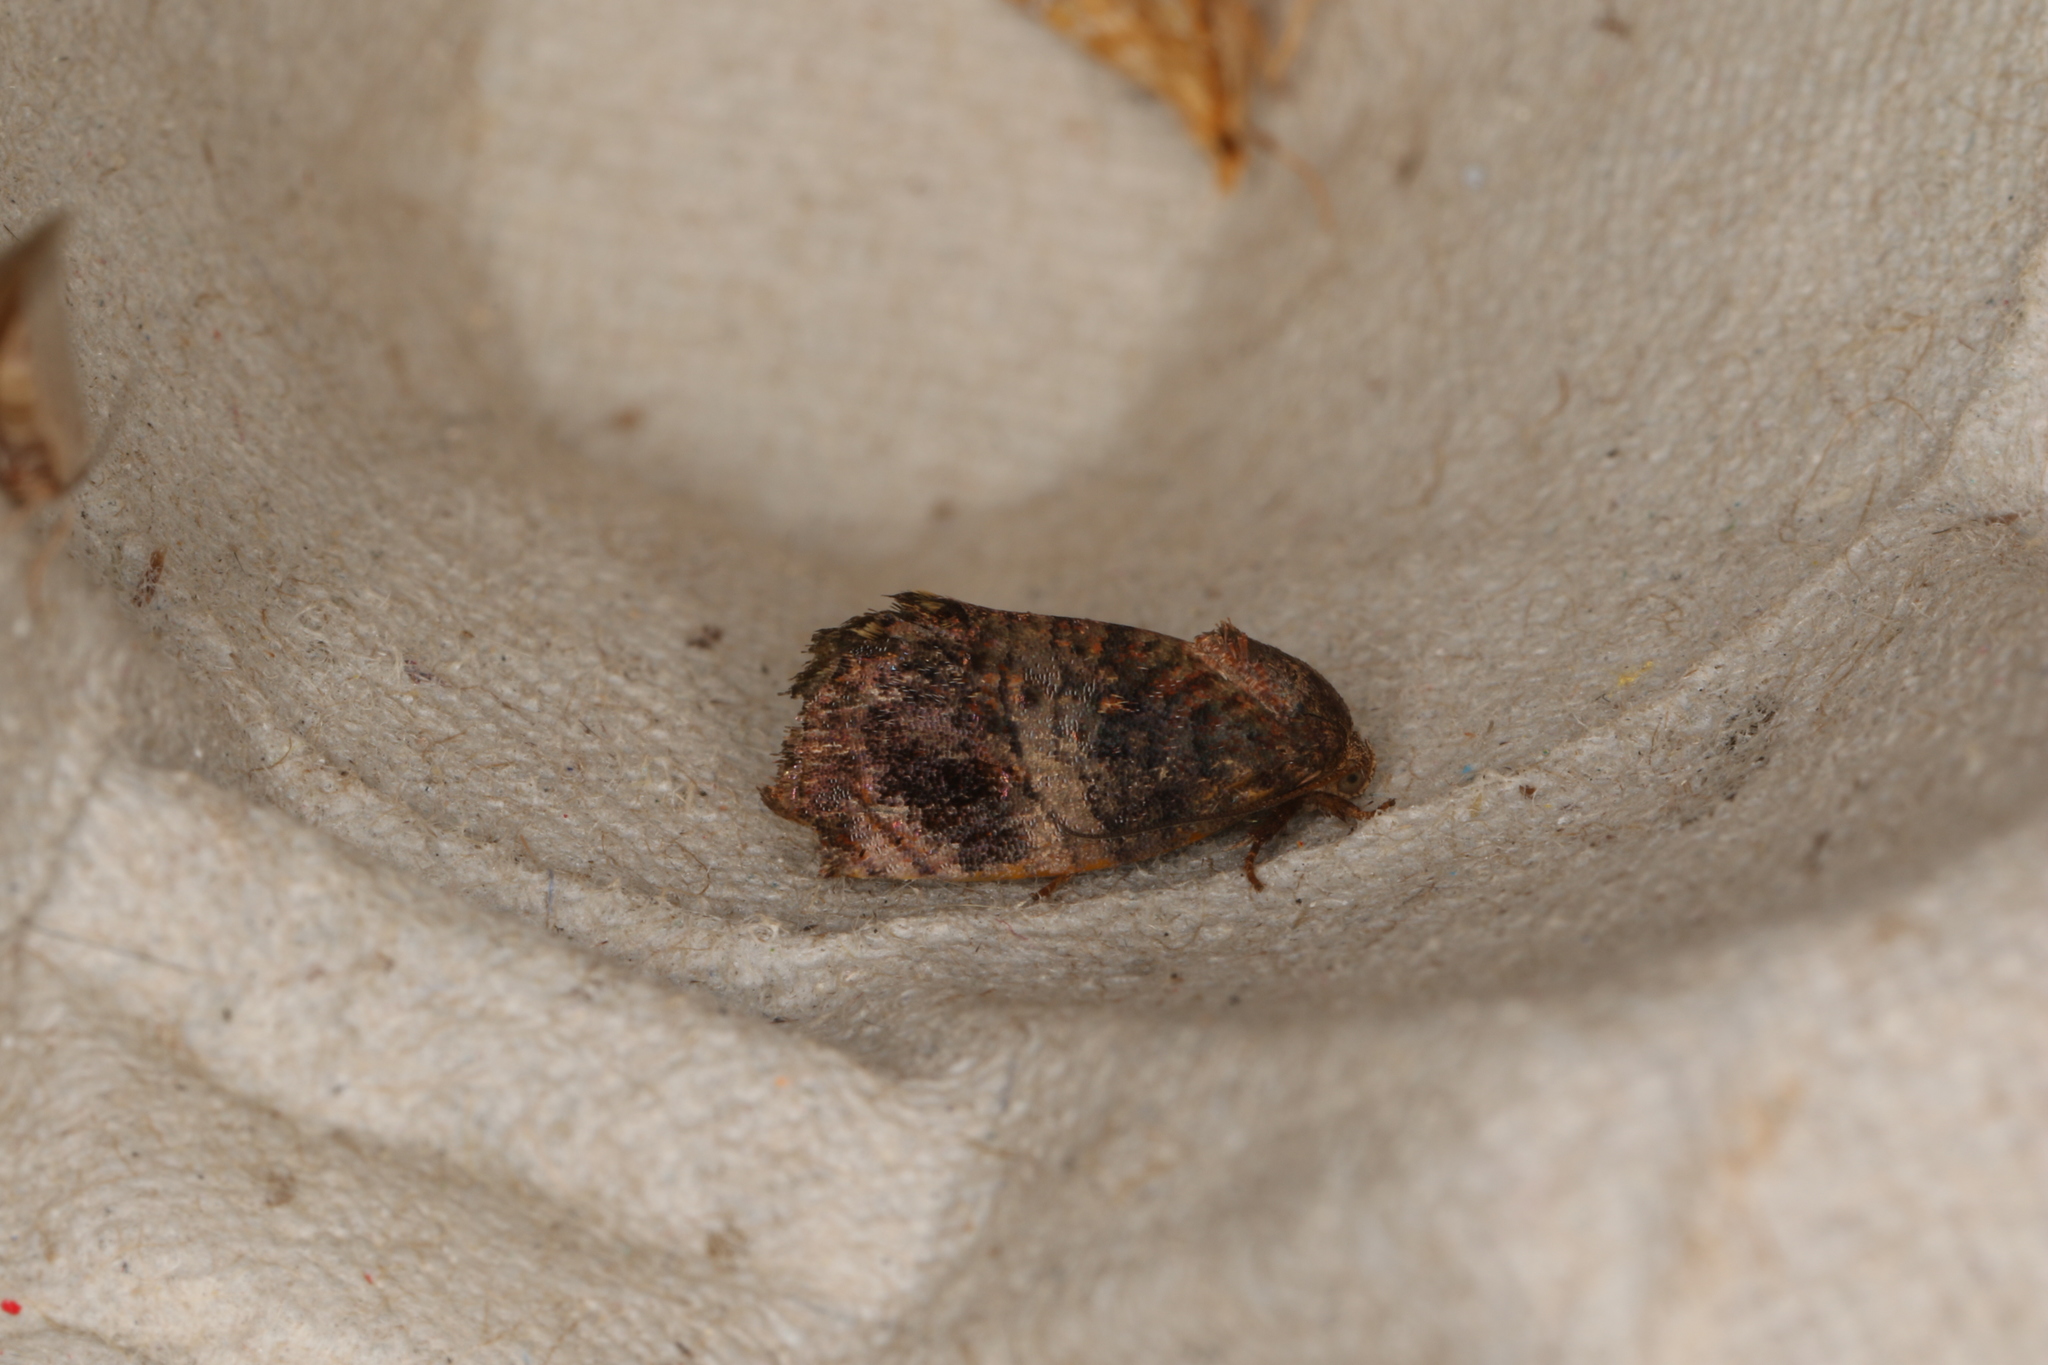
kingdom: Animalia
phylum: Arthropoda
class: Insecta
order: Lepidoptera
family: Depressariidae
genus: Peritropha
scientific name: Peritropha oligodrachma
